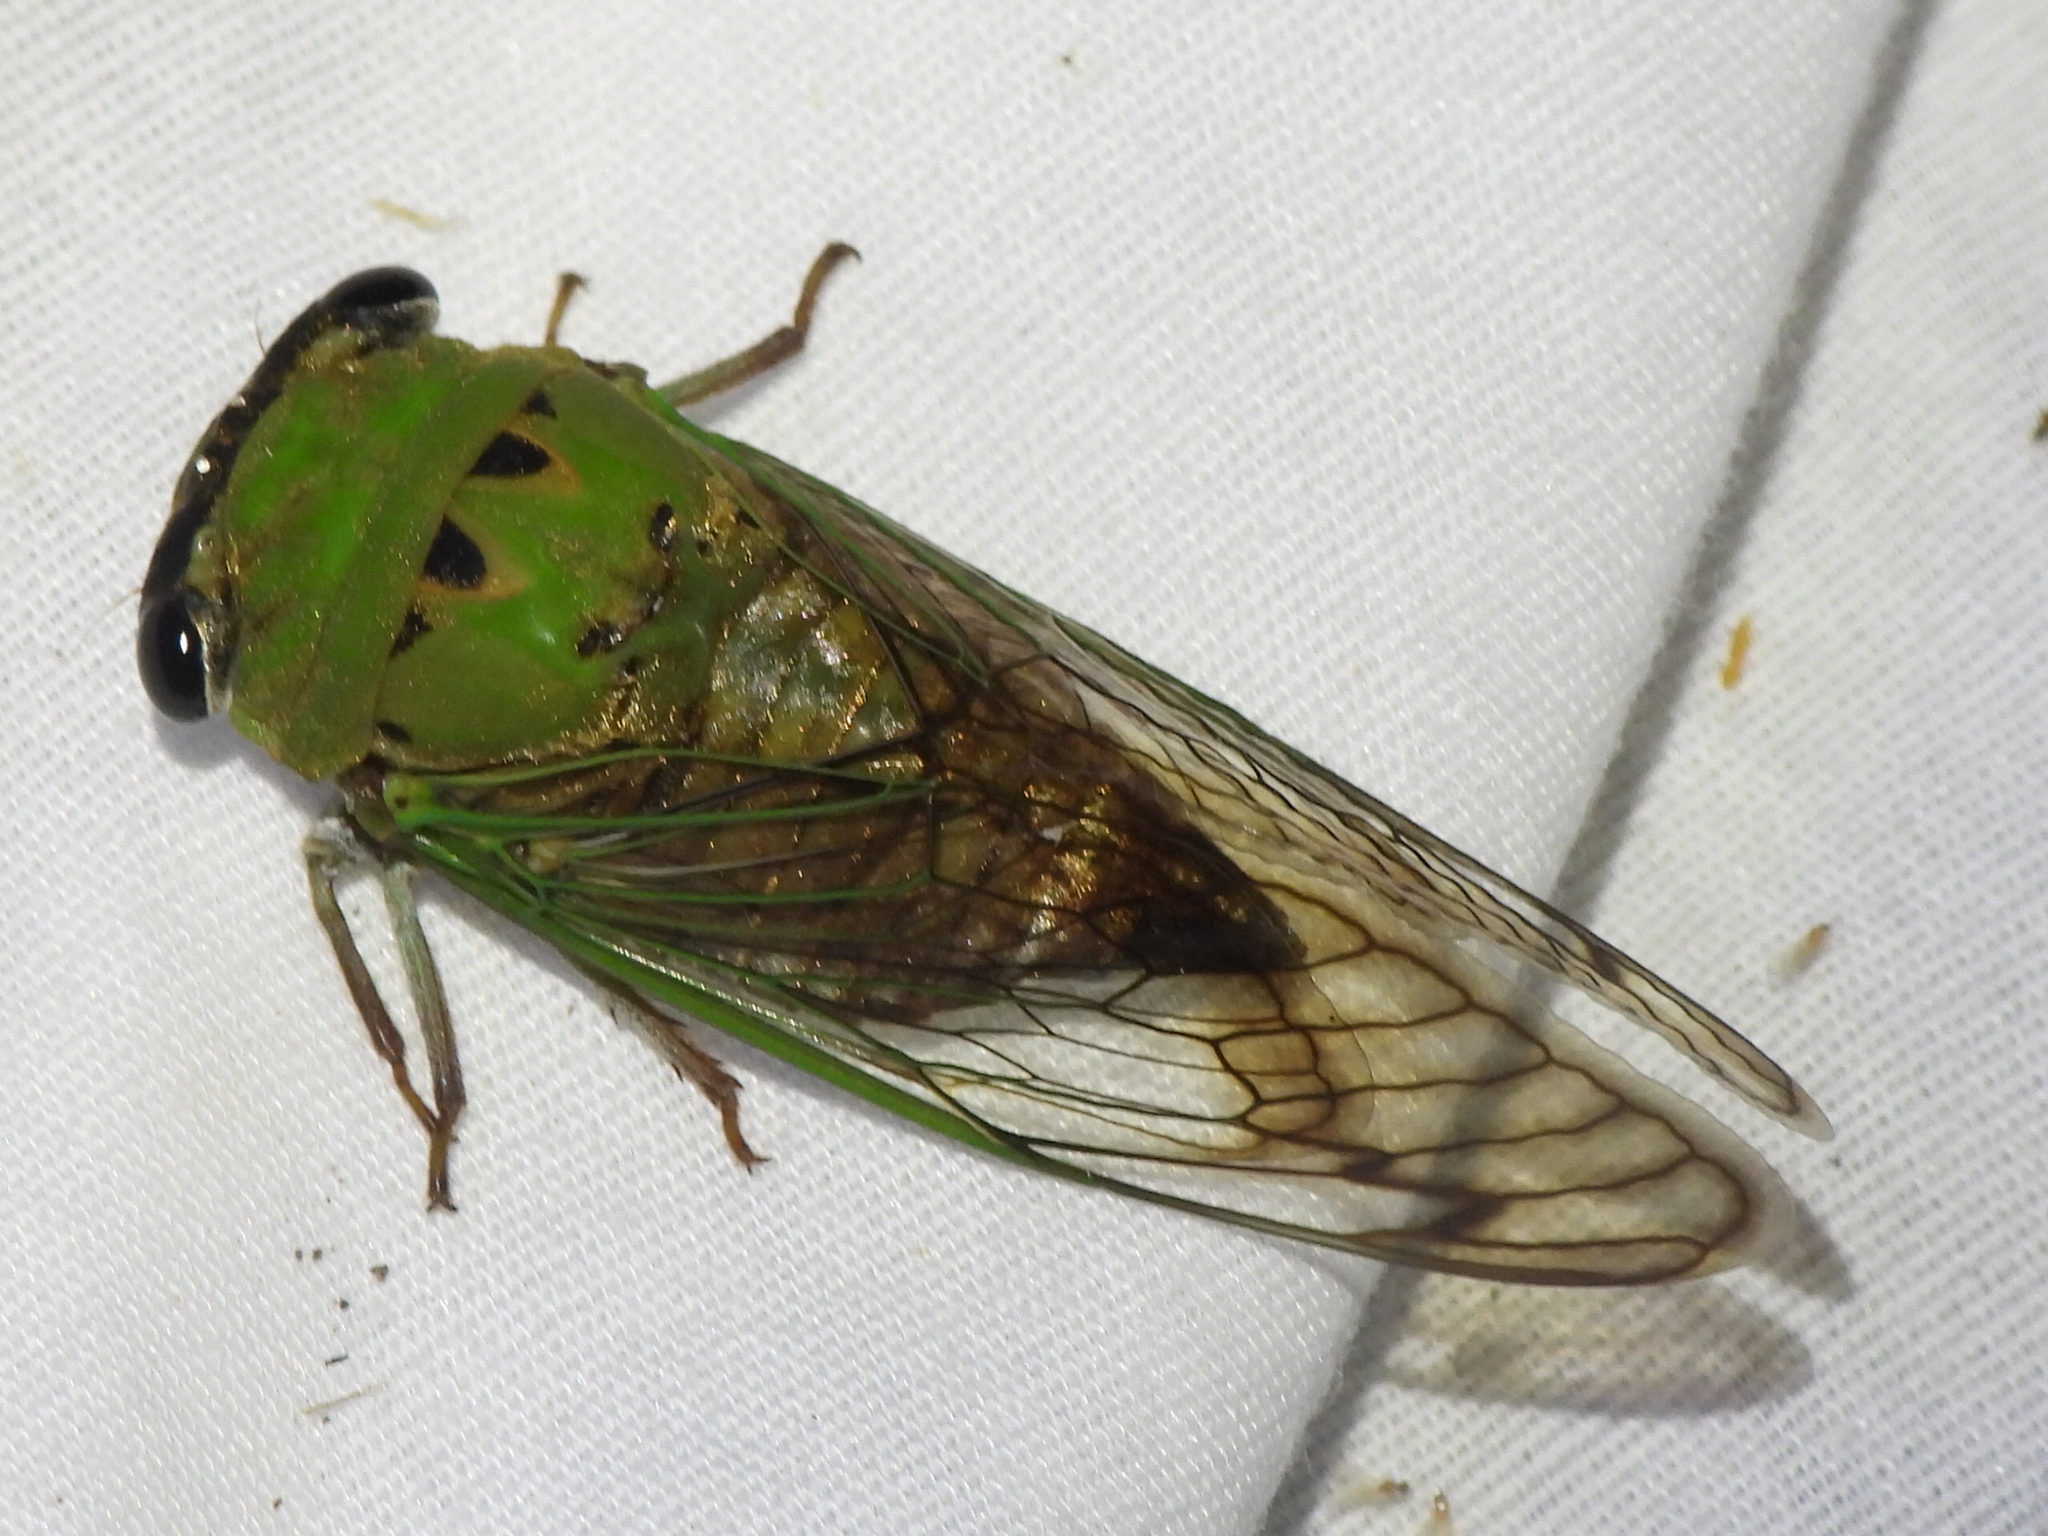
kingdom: Animalia
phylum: Arthropoda
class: Insecta
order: Hemiptera
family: Cicadidae
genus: Neotibicen
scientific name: Neotibicen superbus
